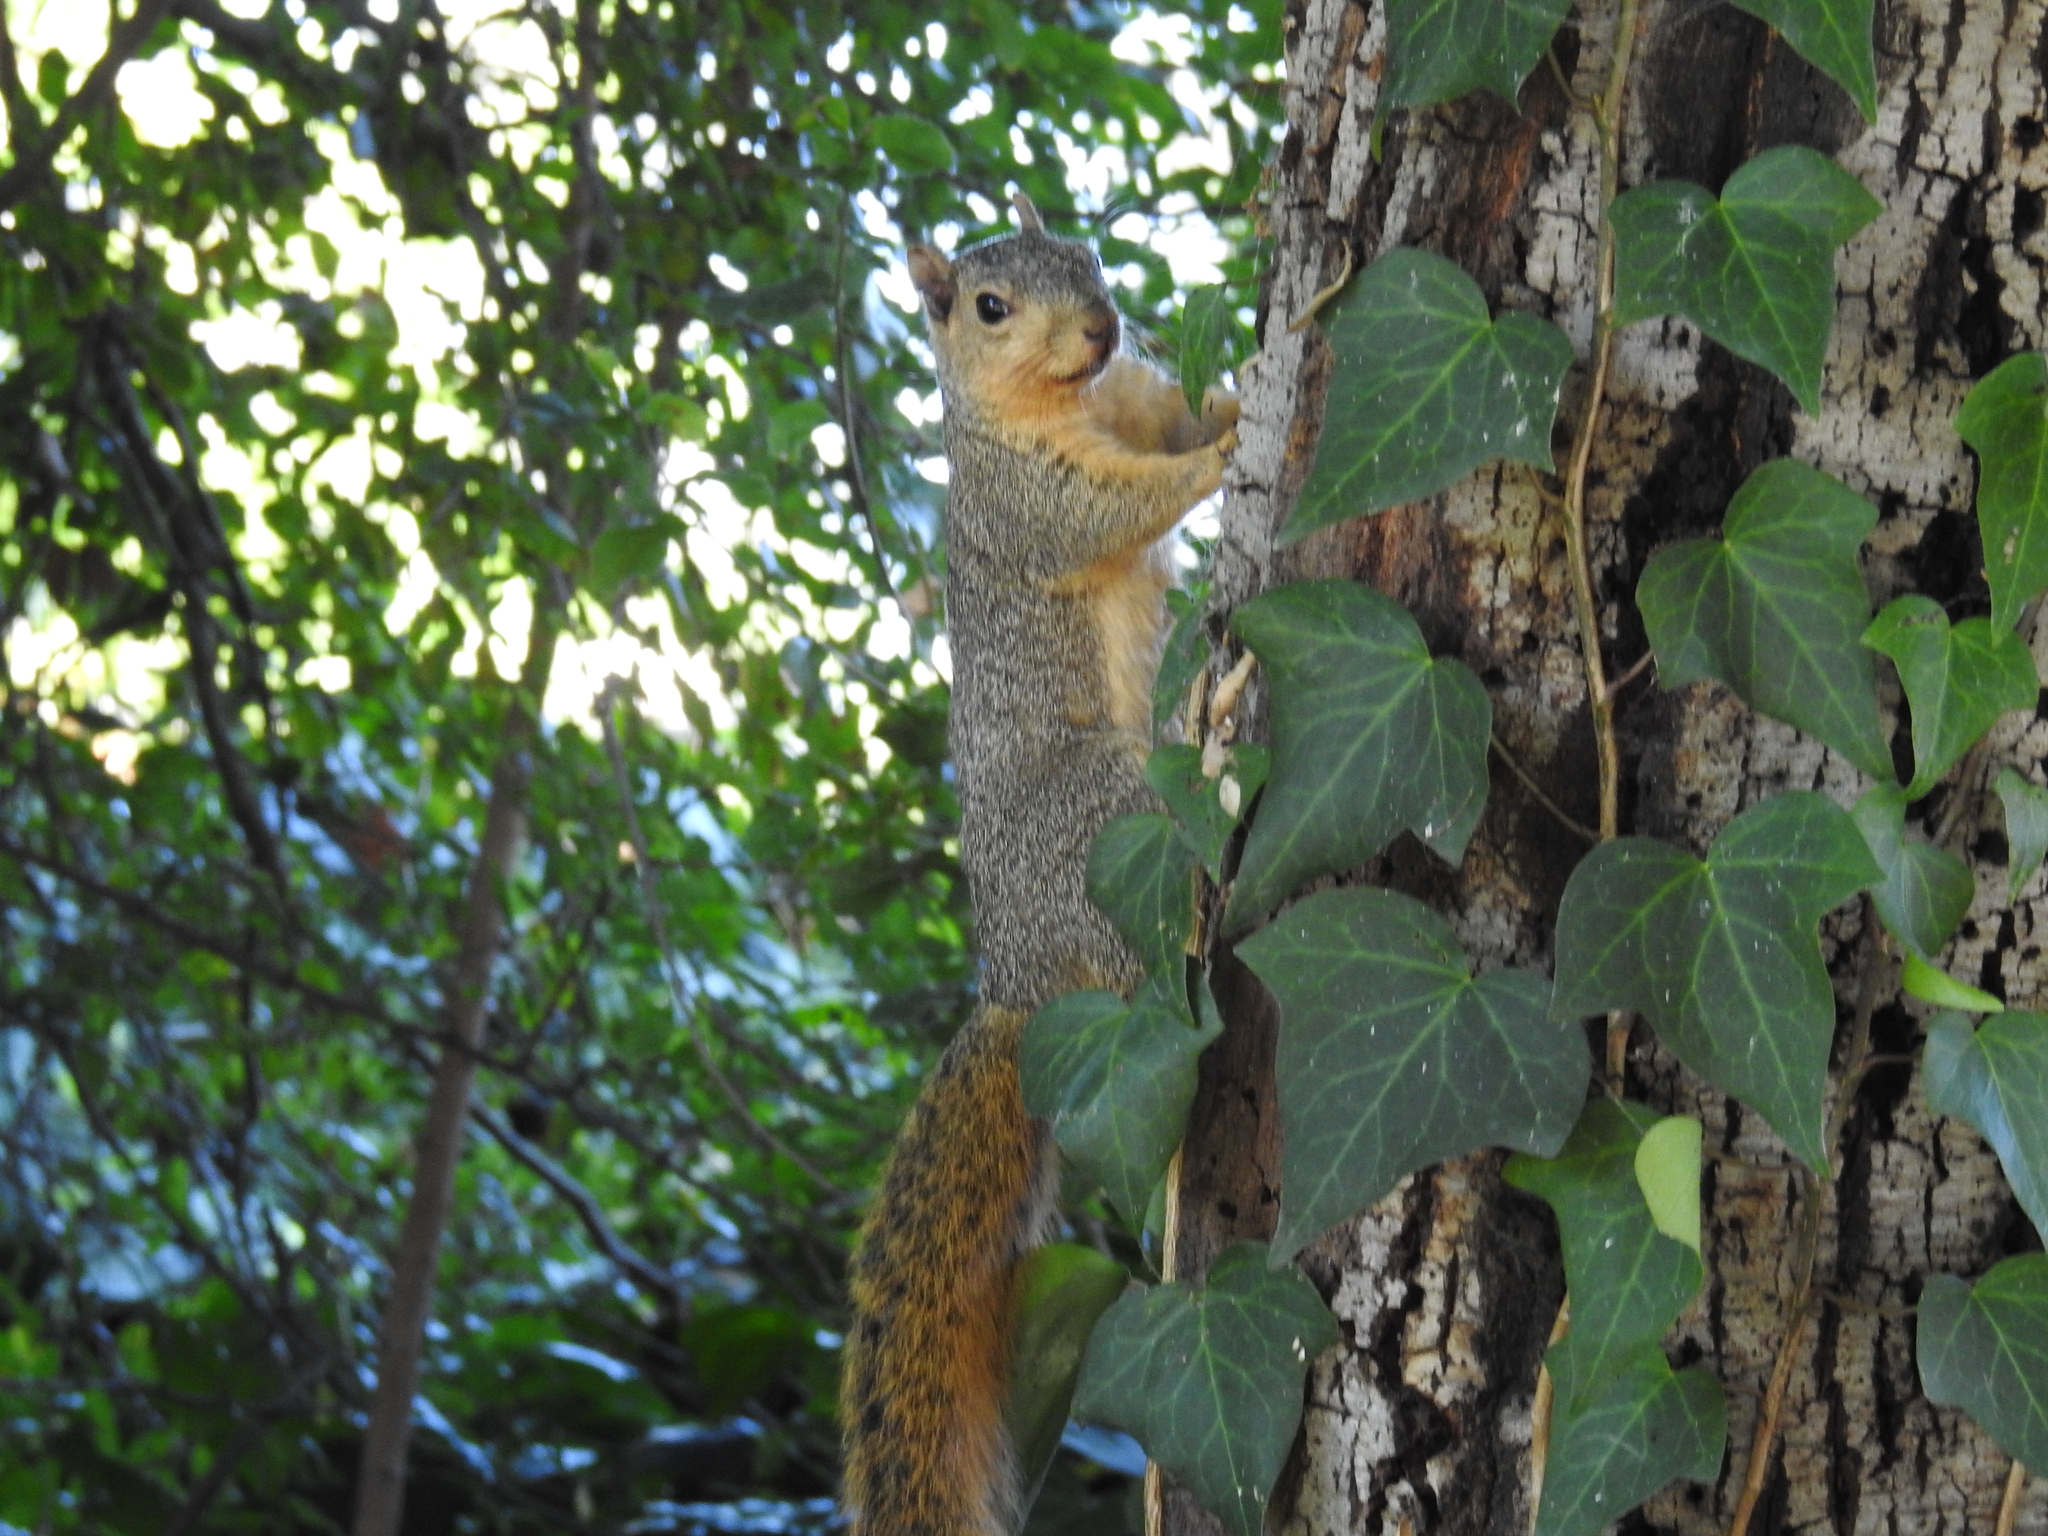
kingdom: Animalia
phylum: Chordata
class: Mammalia
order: Rodentia
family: Sciuridae
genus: Sciurus
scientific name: Sciurus niger
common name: Fox squirrel
